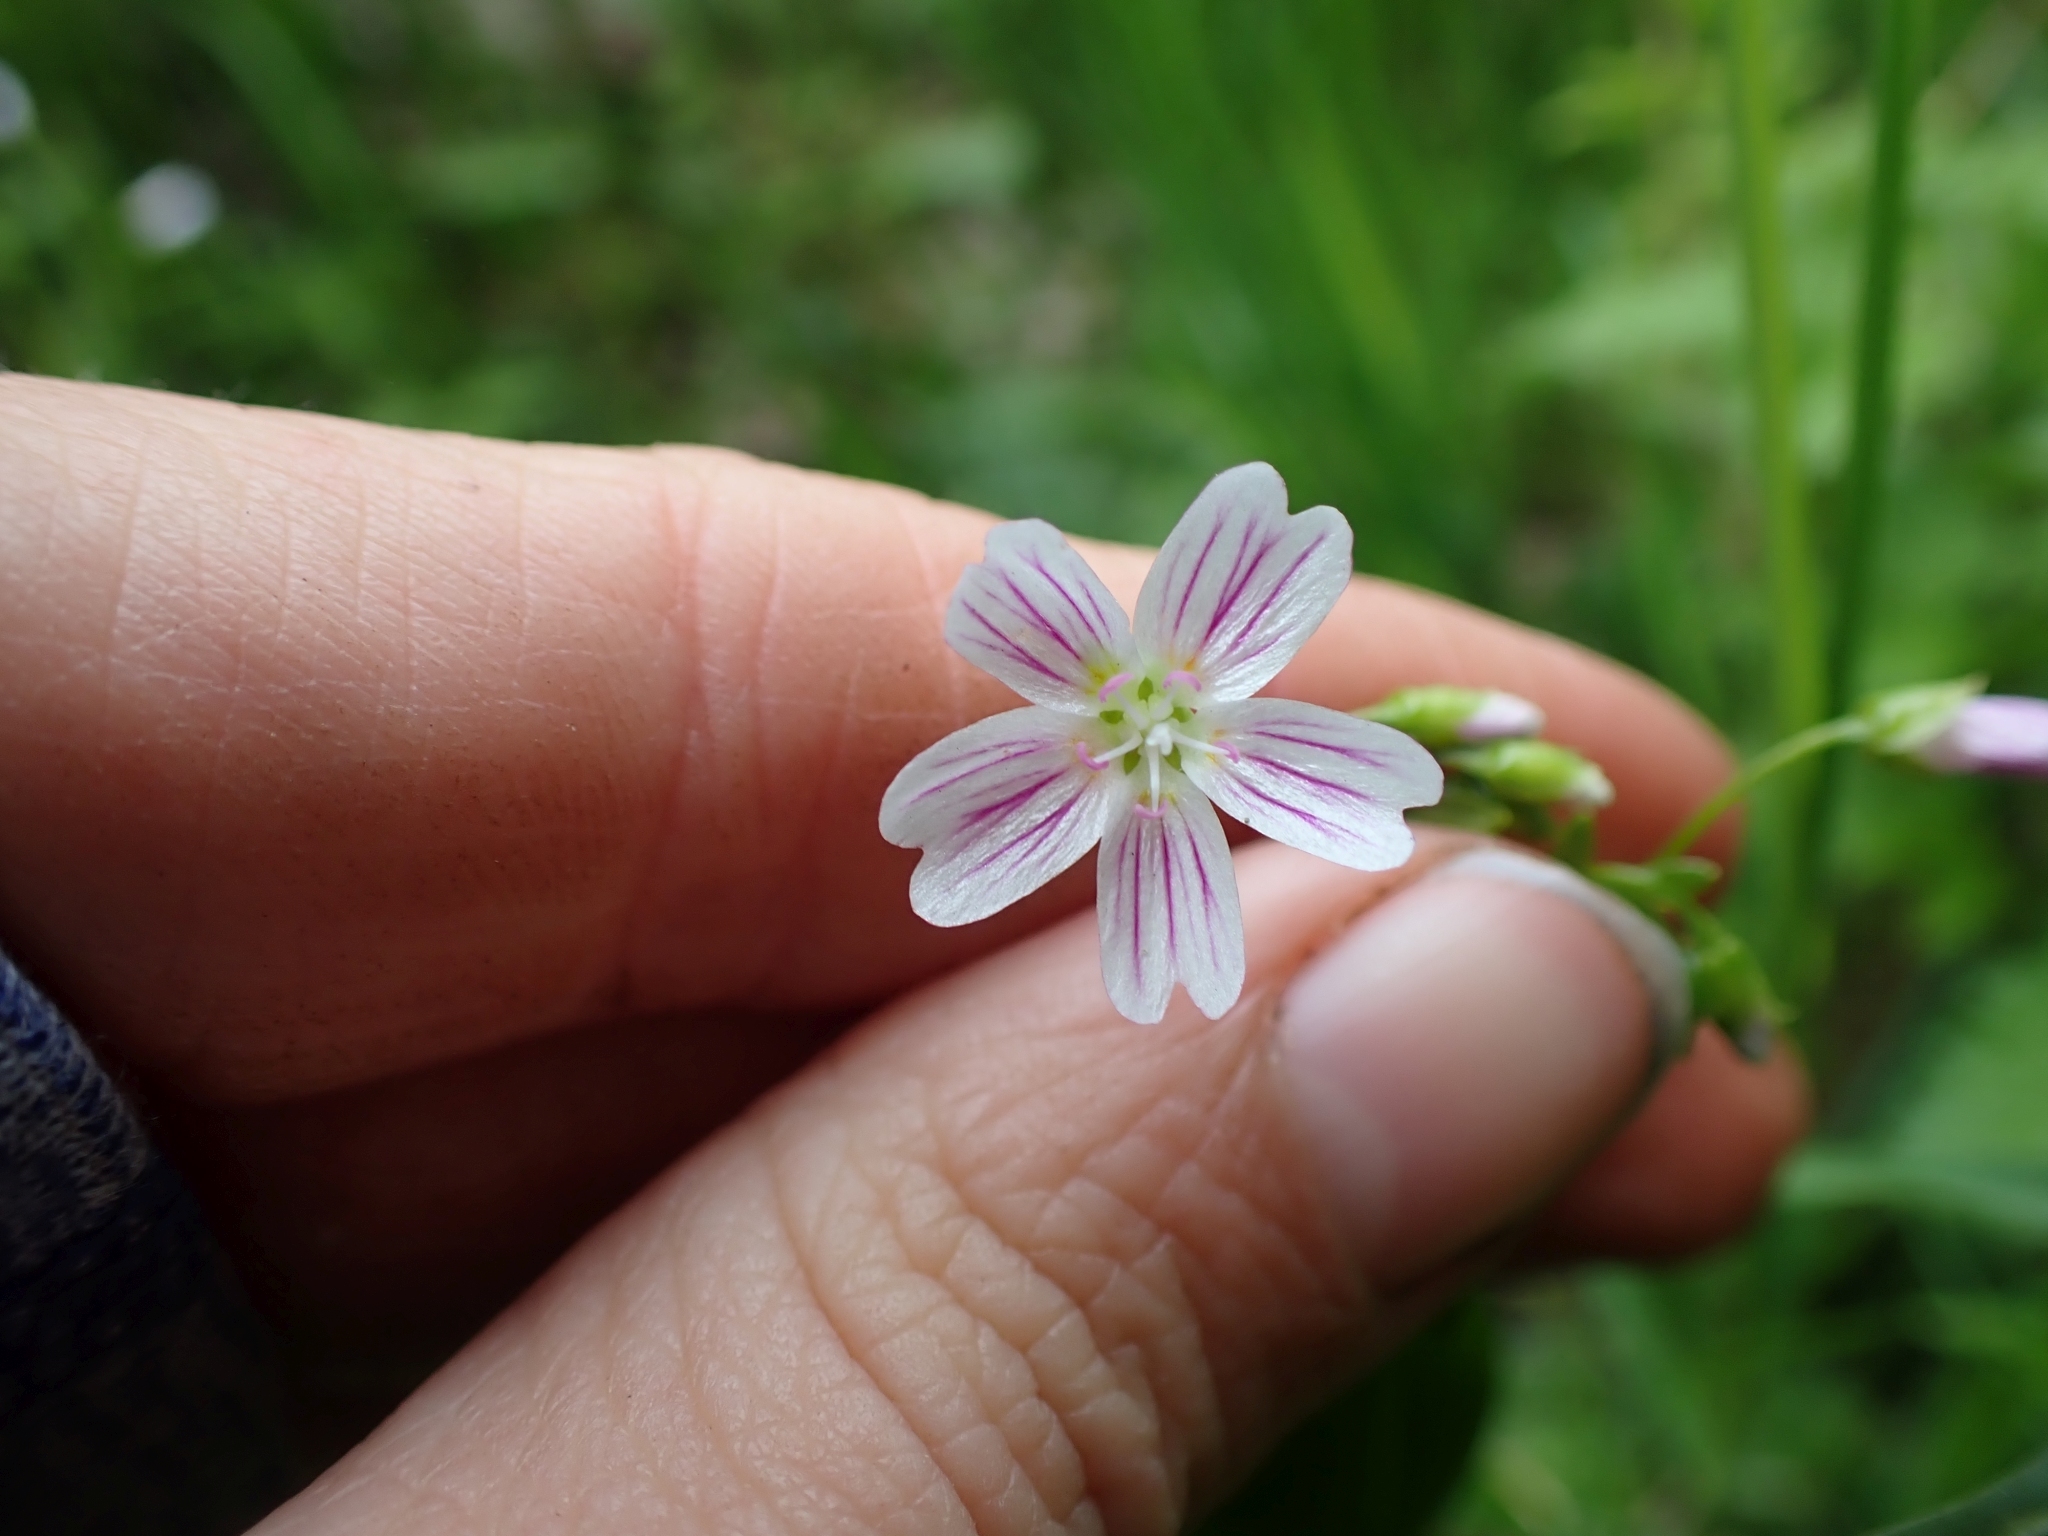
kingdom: Plantae
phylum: Tracheophyta
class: Magnoliopsida
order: Caryophyllales
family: Montiaceae
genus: Claytonia
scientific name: Claytonia sibirica
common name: Pink purslane
